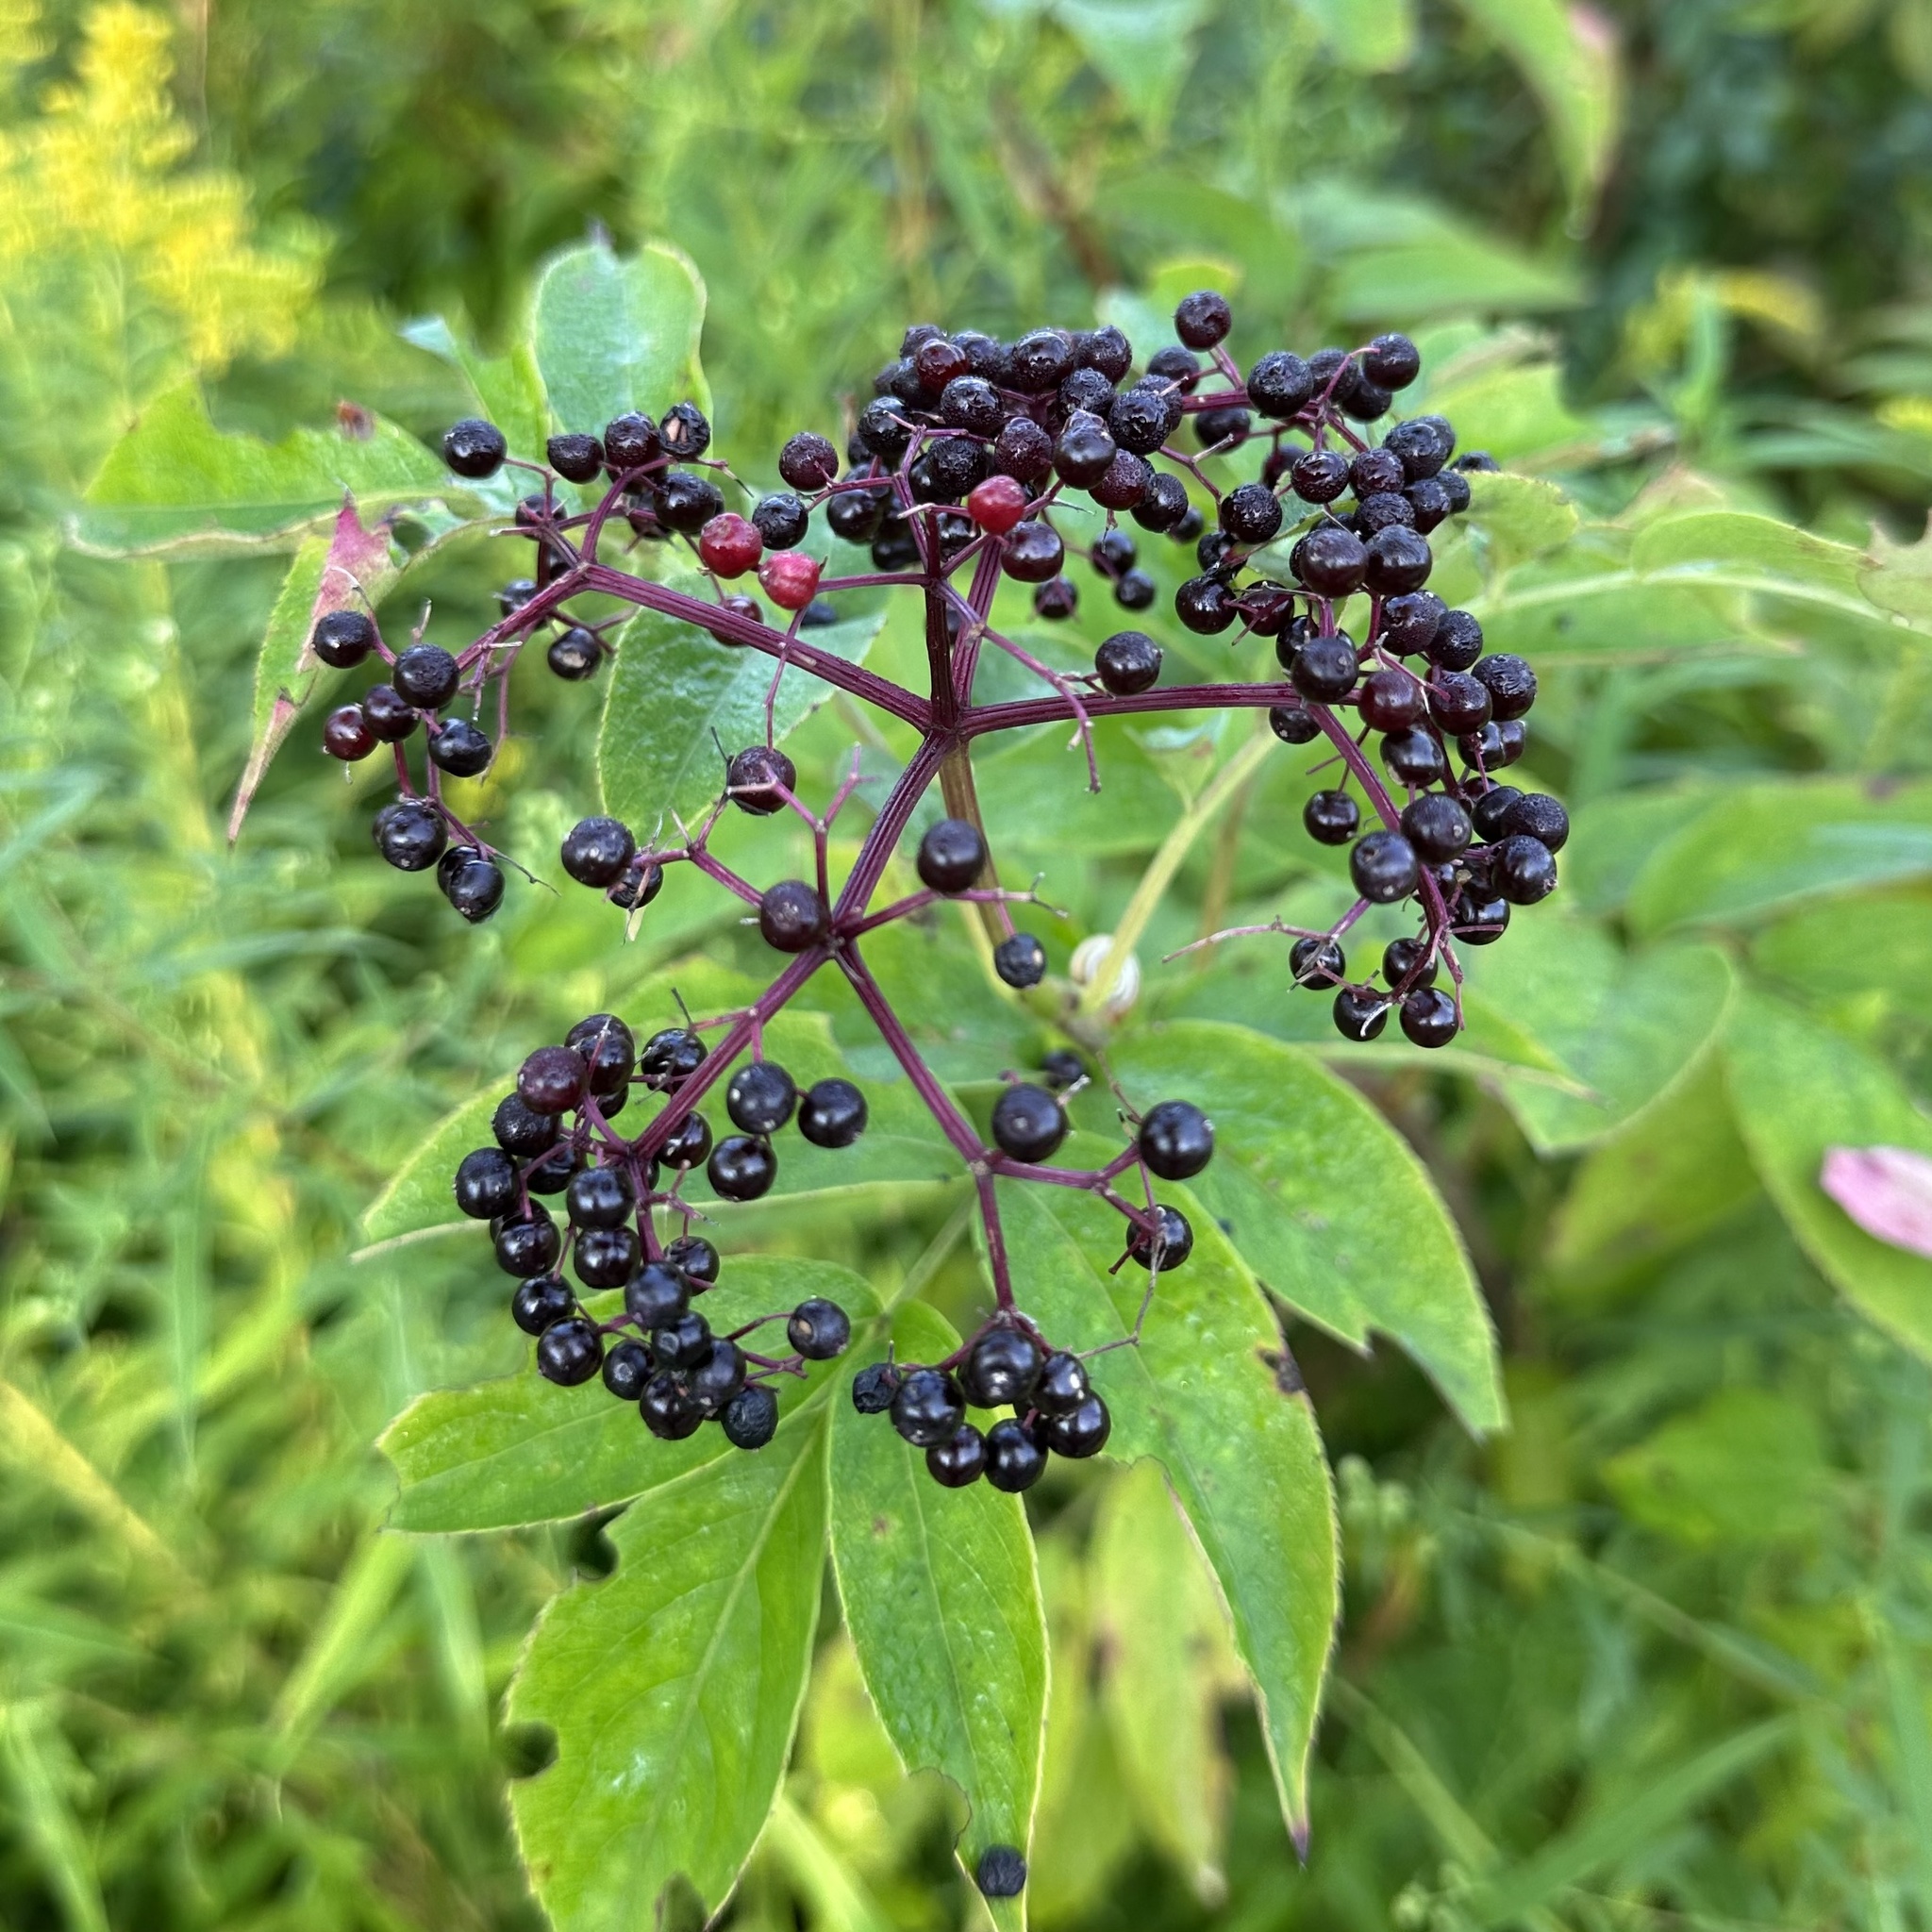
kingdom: Plantae
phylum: Tracheophyta
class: Magnoliopsida
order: Dipsacales
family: Viburnaceae
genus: Sambucus
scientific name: Sambucus canadensis
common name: American elder
